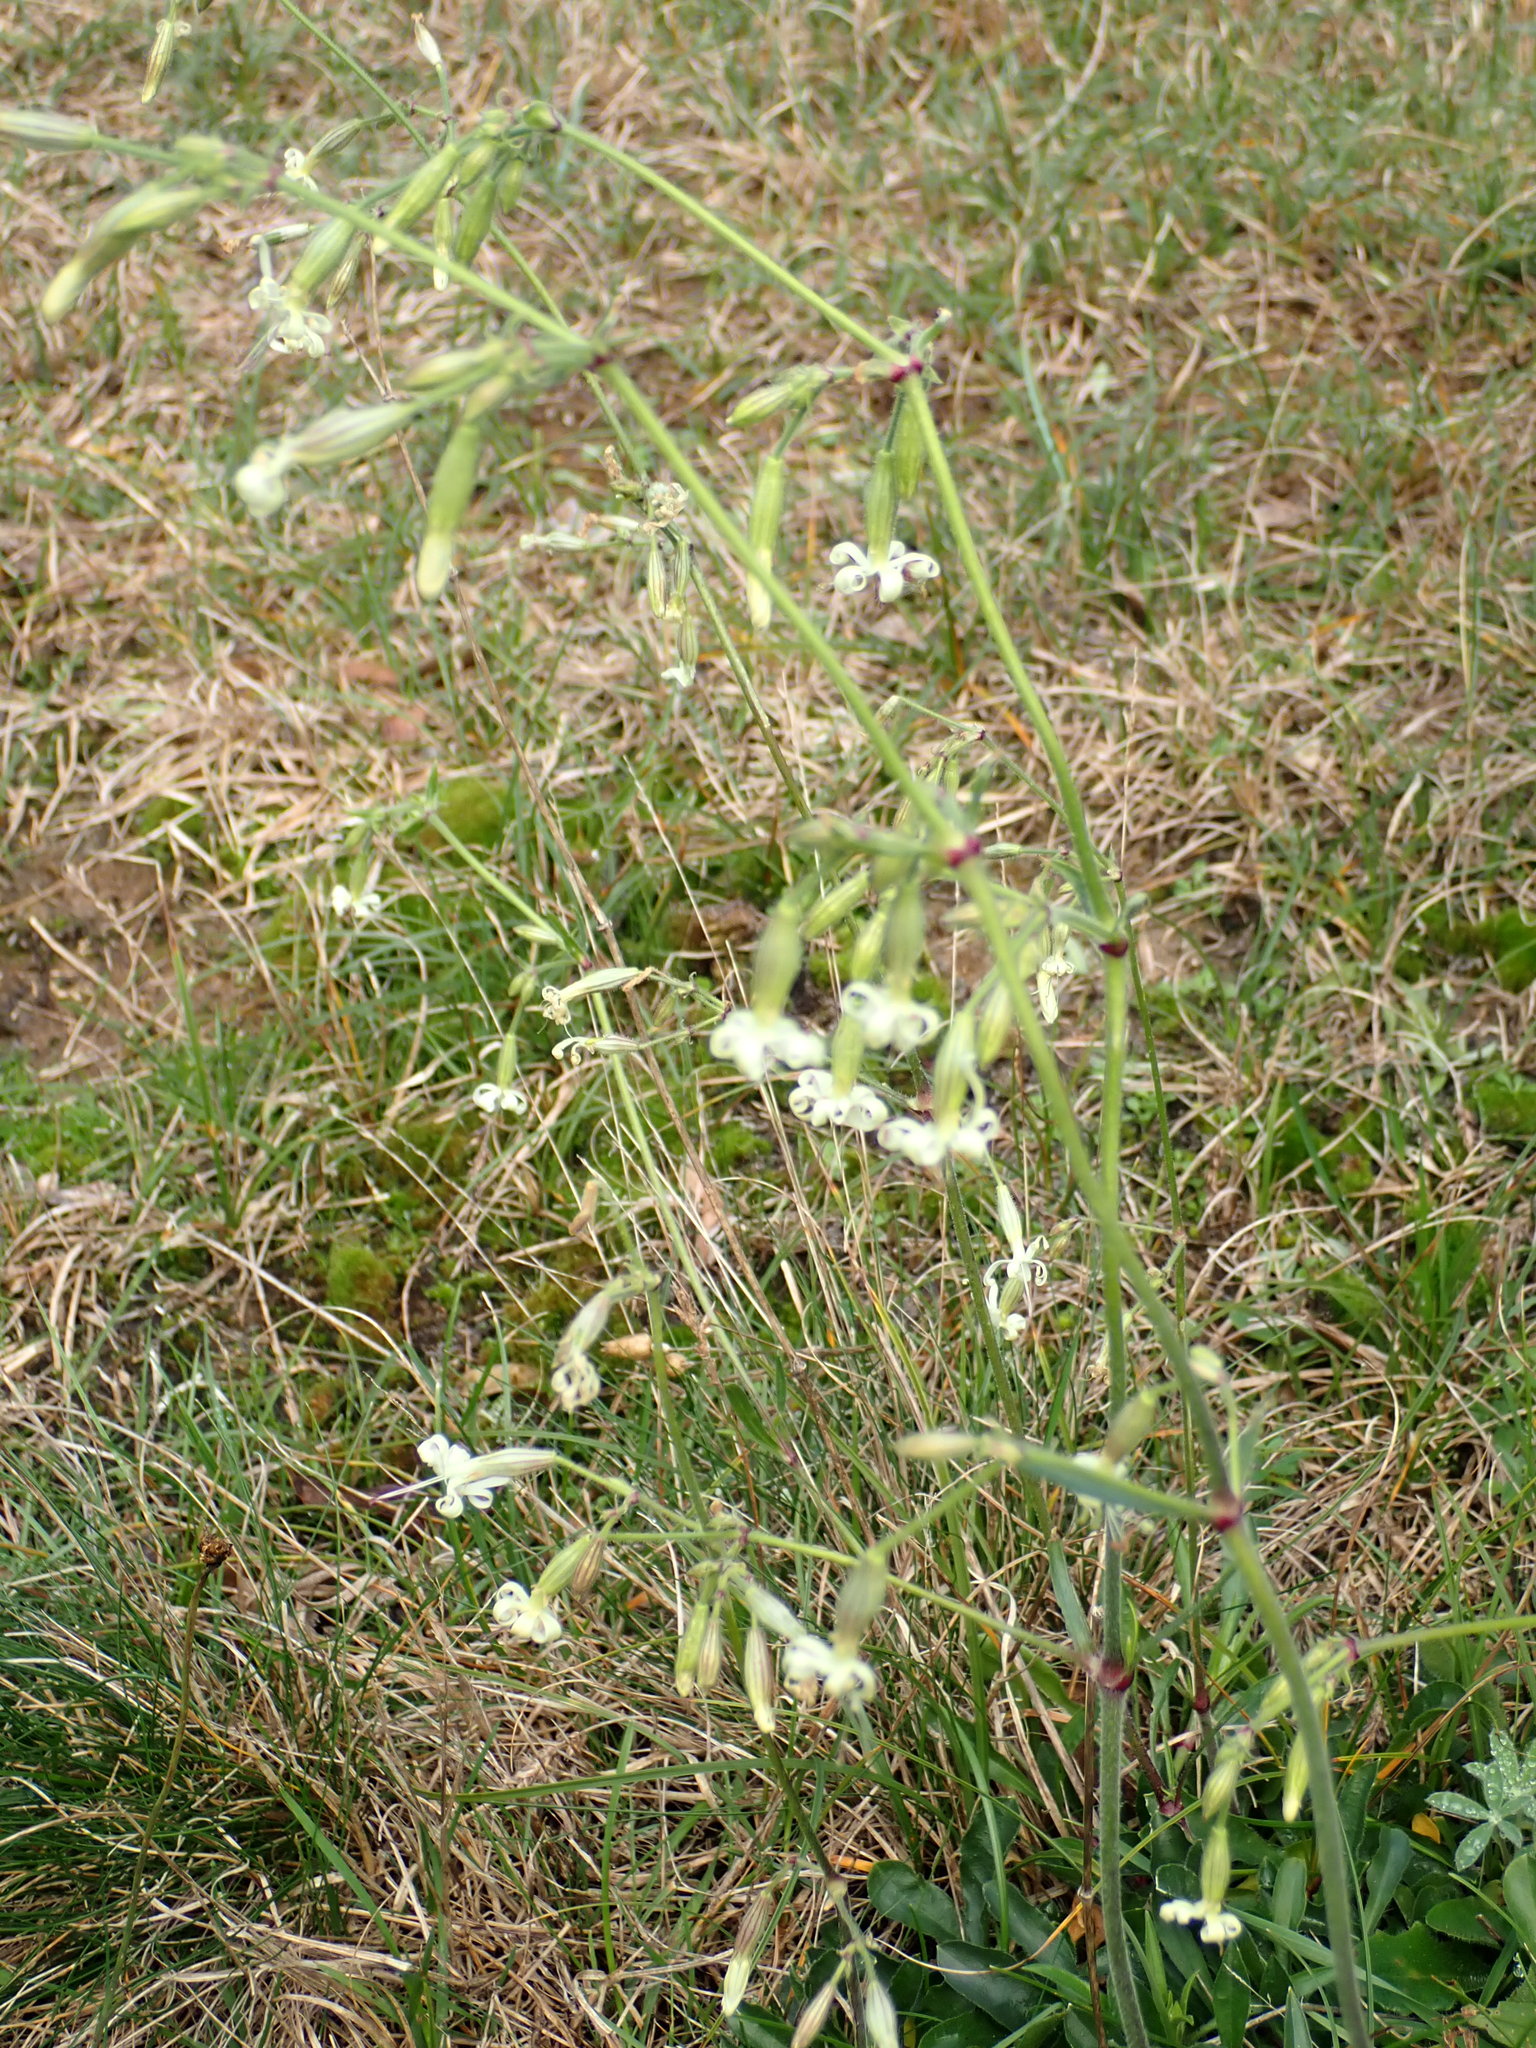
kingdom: Plantae
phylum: Tracheophyta
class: Magnoliopsida
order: Caryophyllales
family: Caryophyllaceae
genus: Silene
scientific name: Silene nutans
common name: Nottingham catchfly
